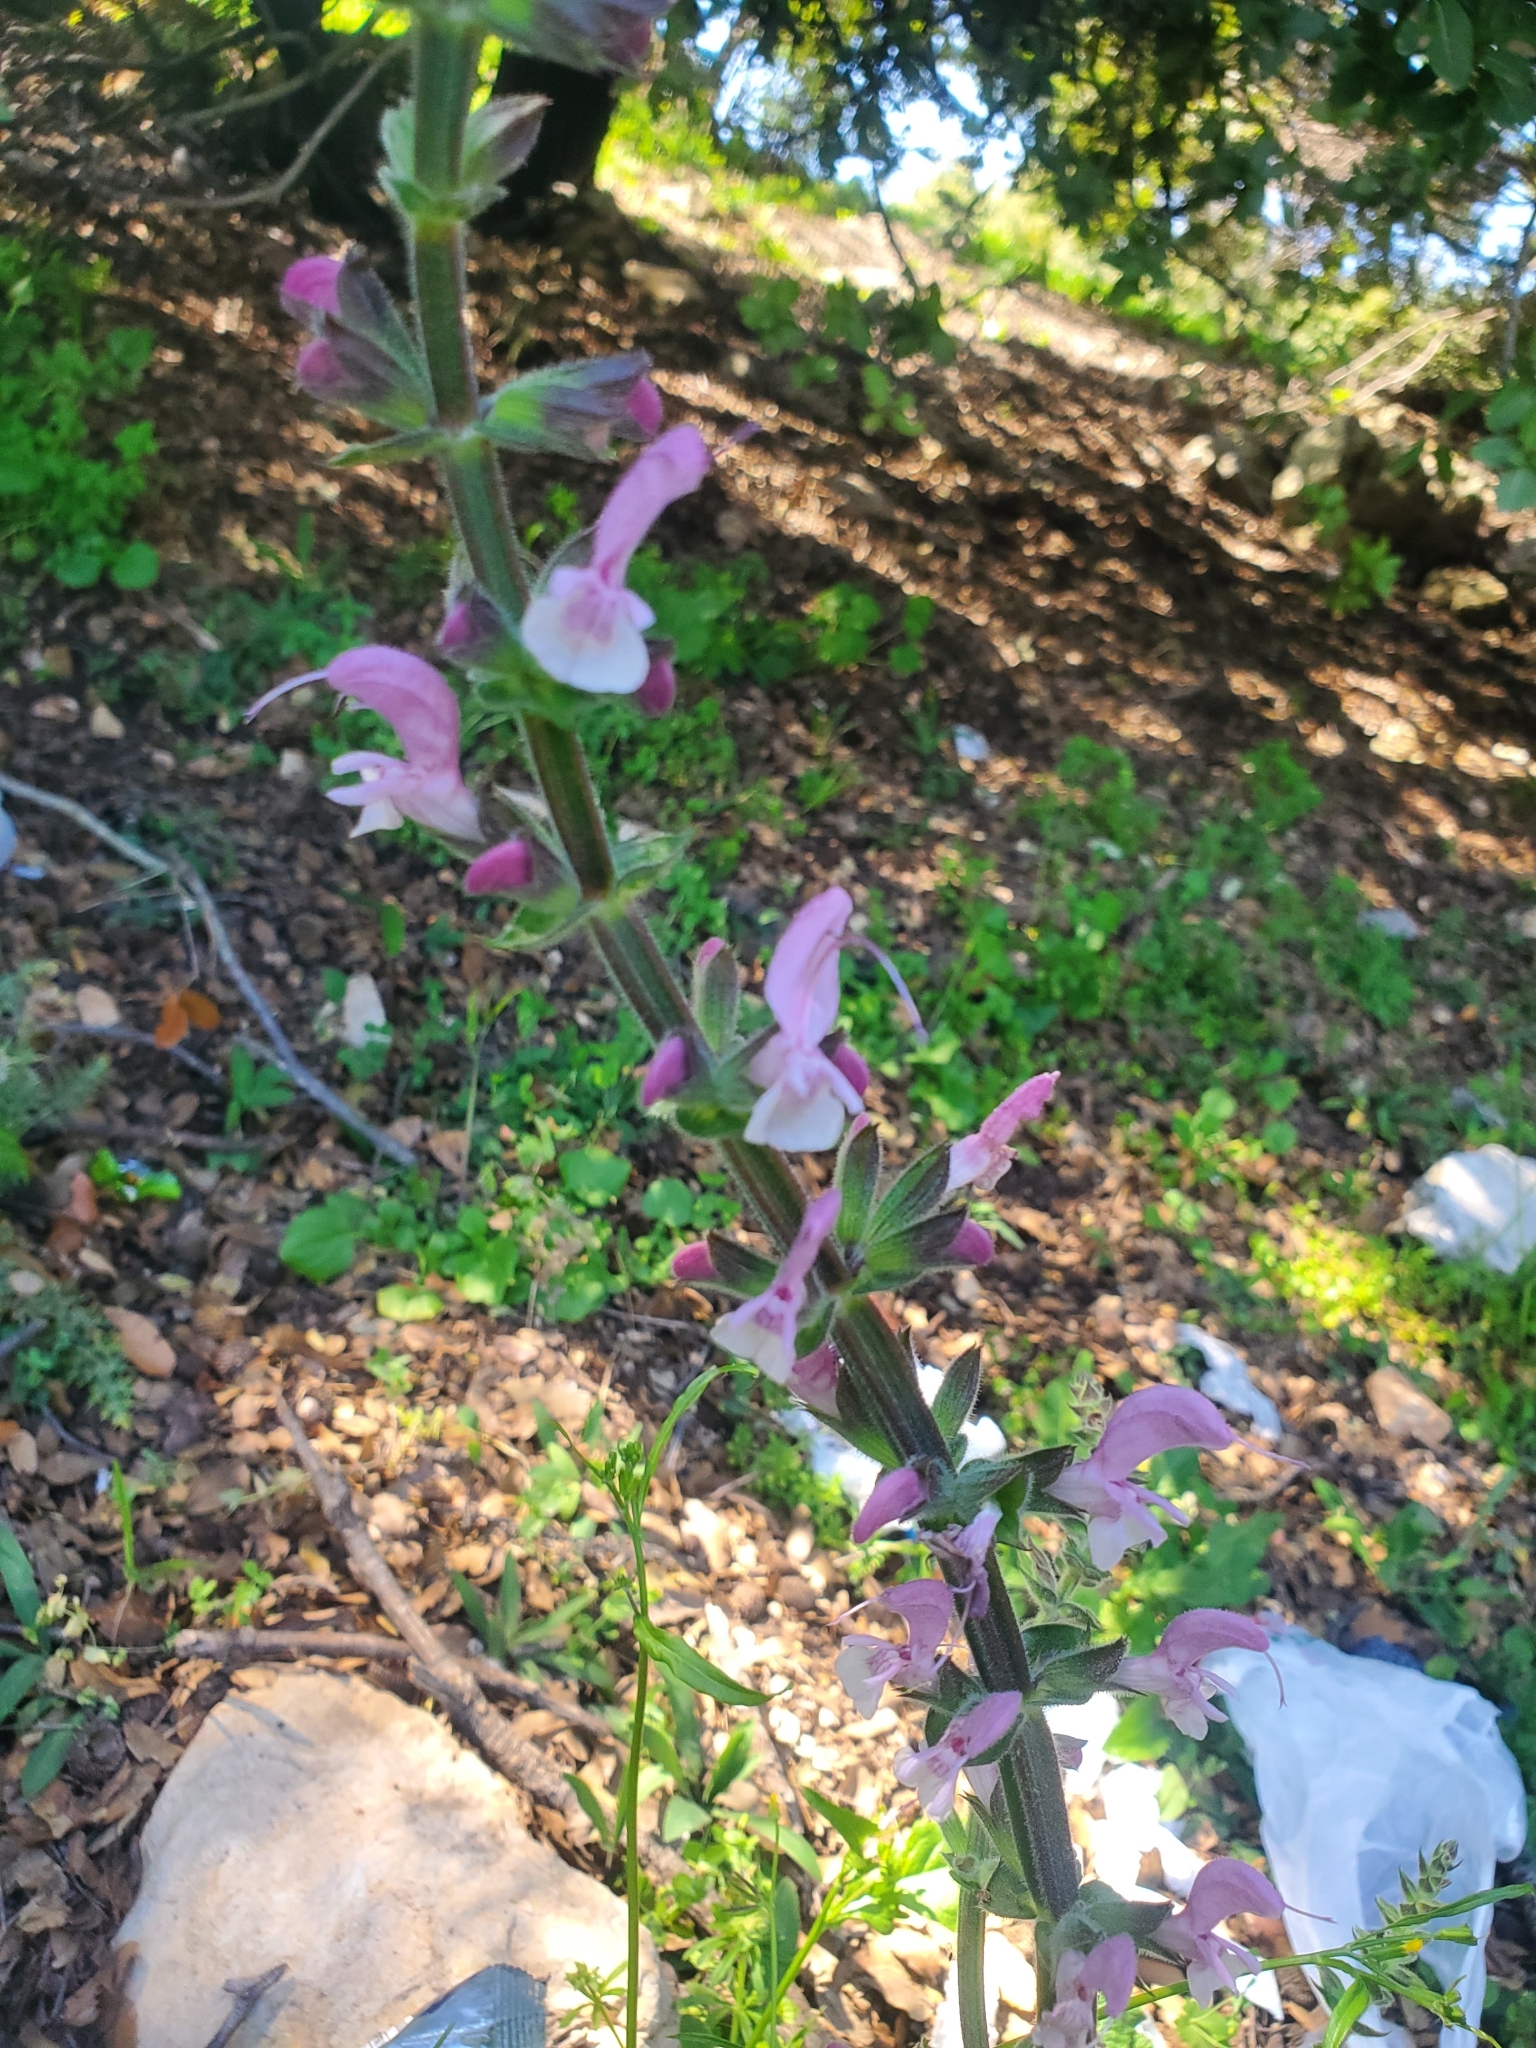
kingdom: Plantae
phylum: Tracheophyta
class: Magnoliopsida
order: Lamiales
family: Lamiaceae
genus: Salvia
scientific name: Salvia hierosolymitana
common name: Jerusalem salvia
